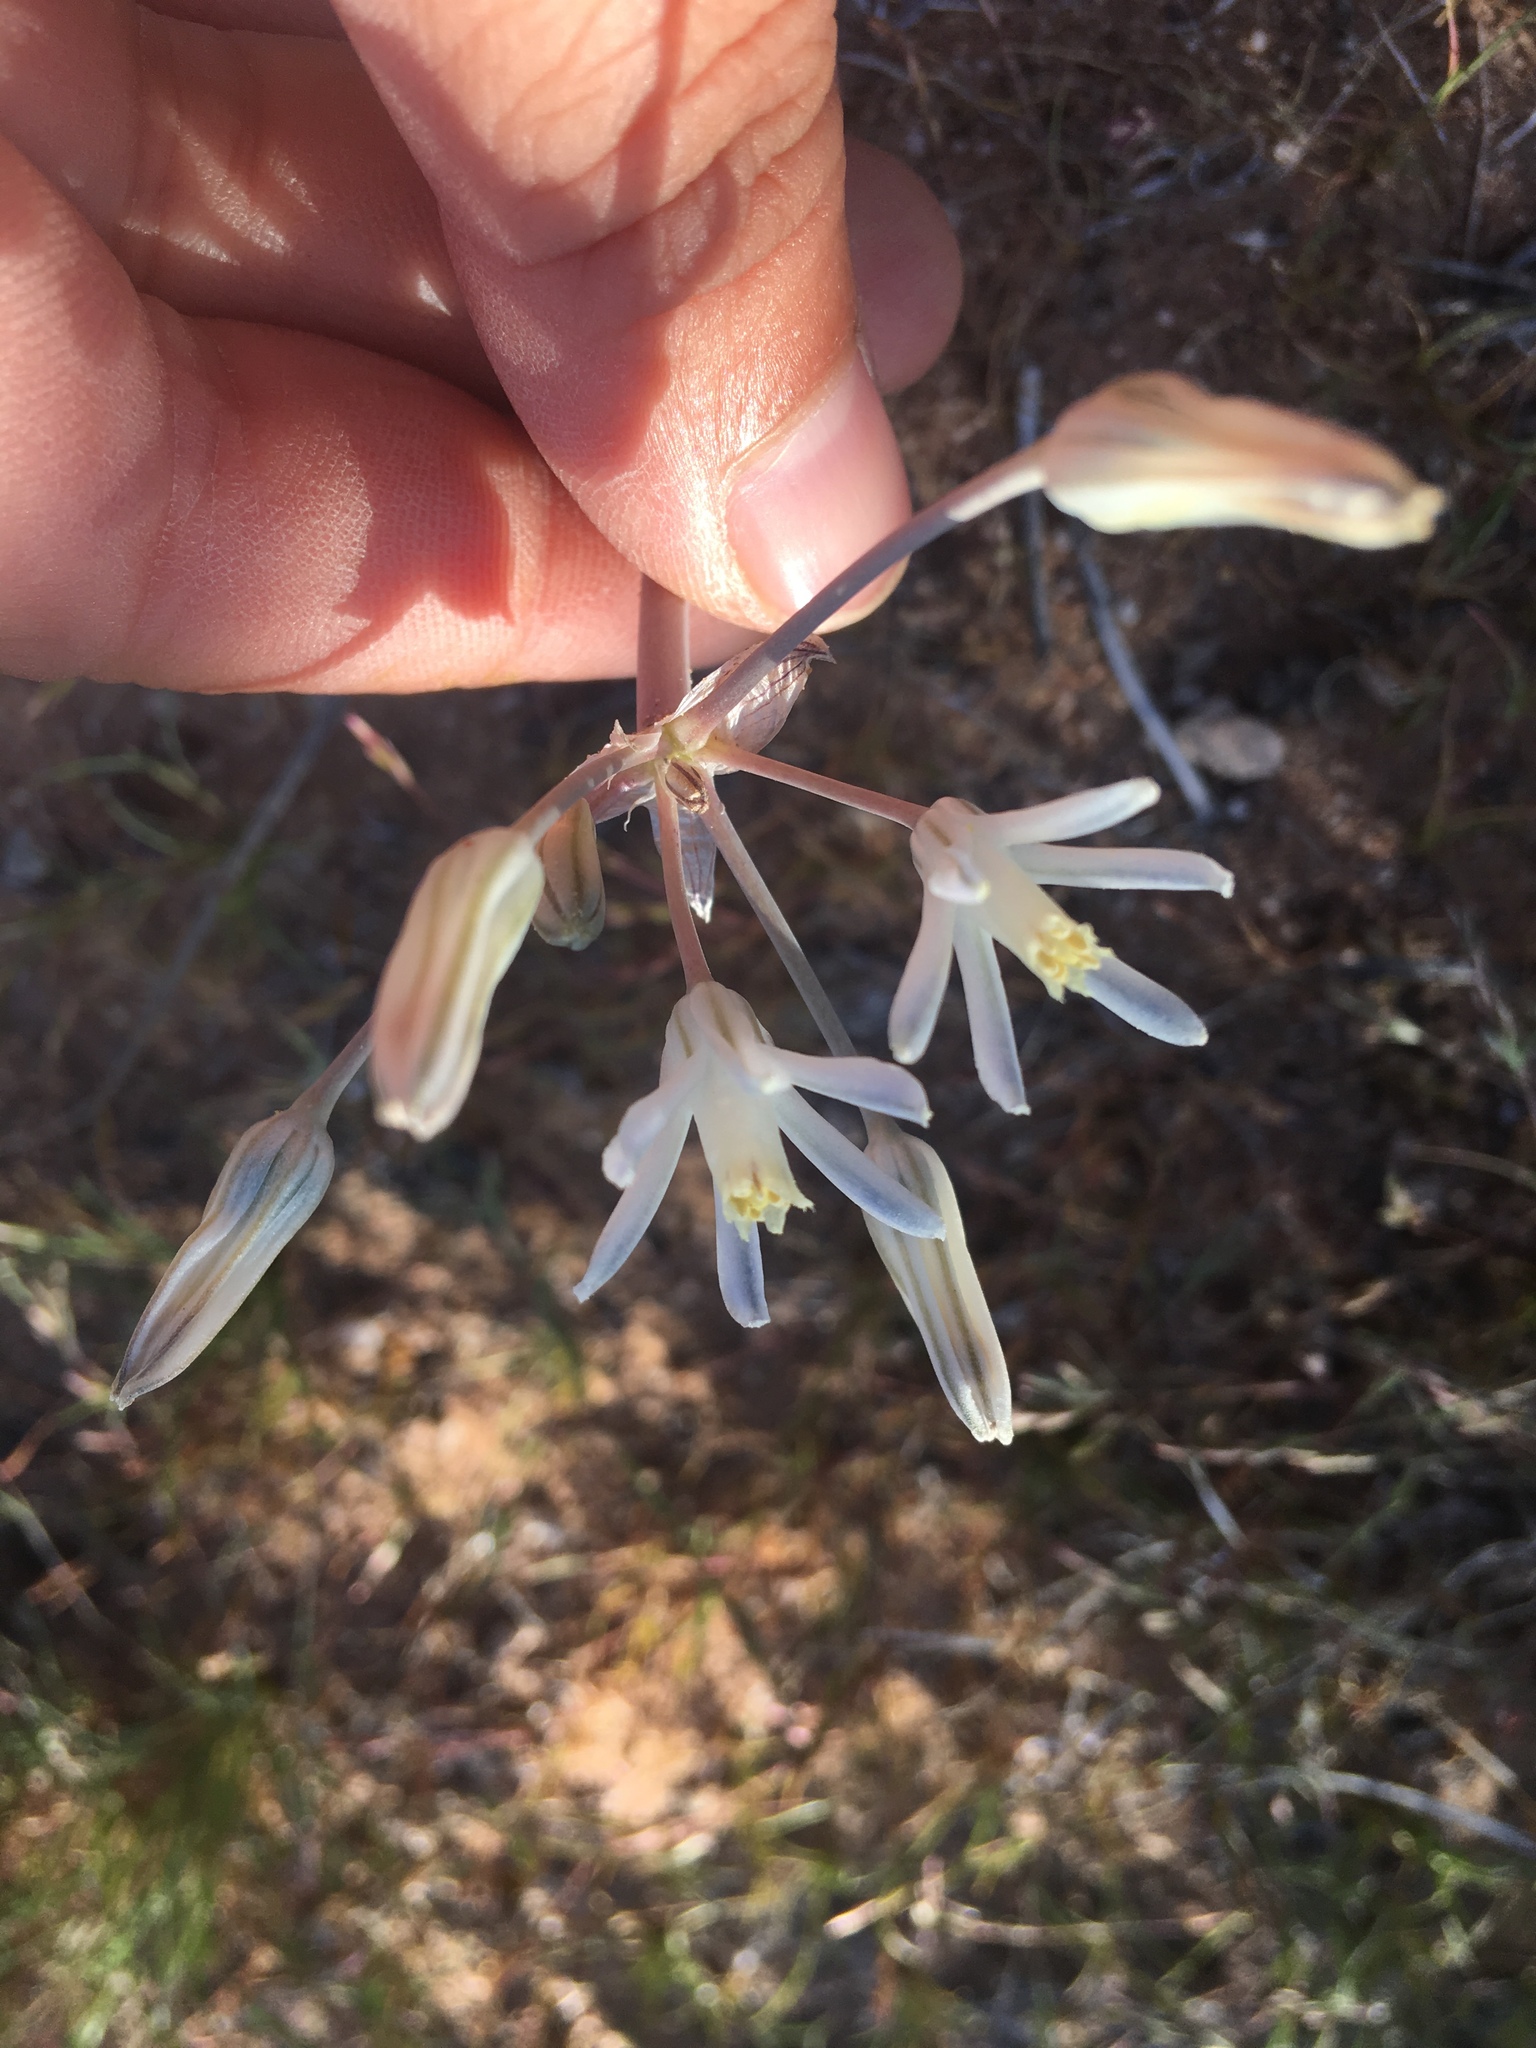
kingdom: Plantae
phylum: Tracheophyta
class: Liliopsida
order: Asparagales
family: Asparagaceae
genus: Androstephium
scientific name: Androstephium breviflorum
